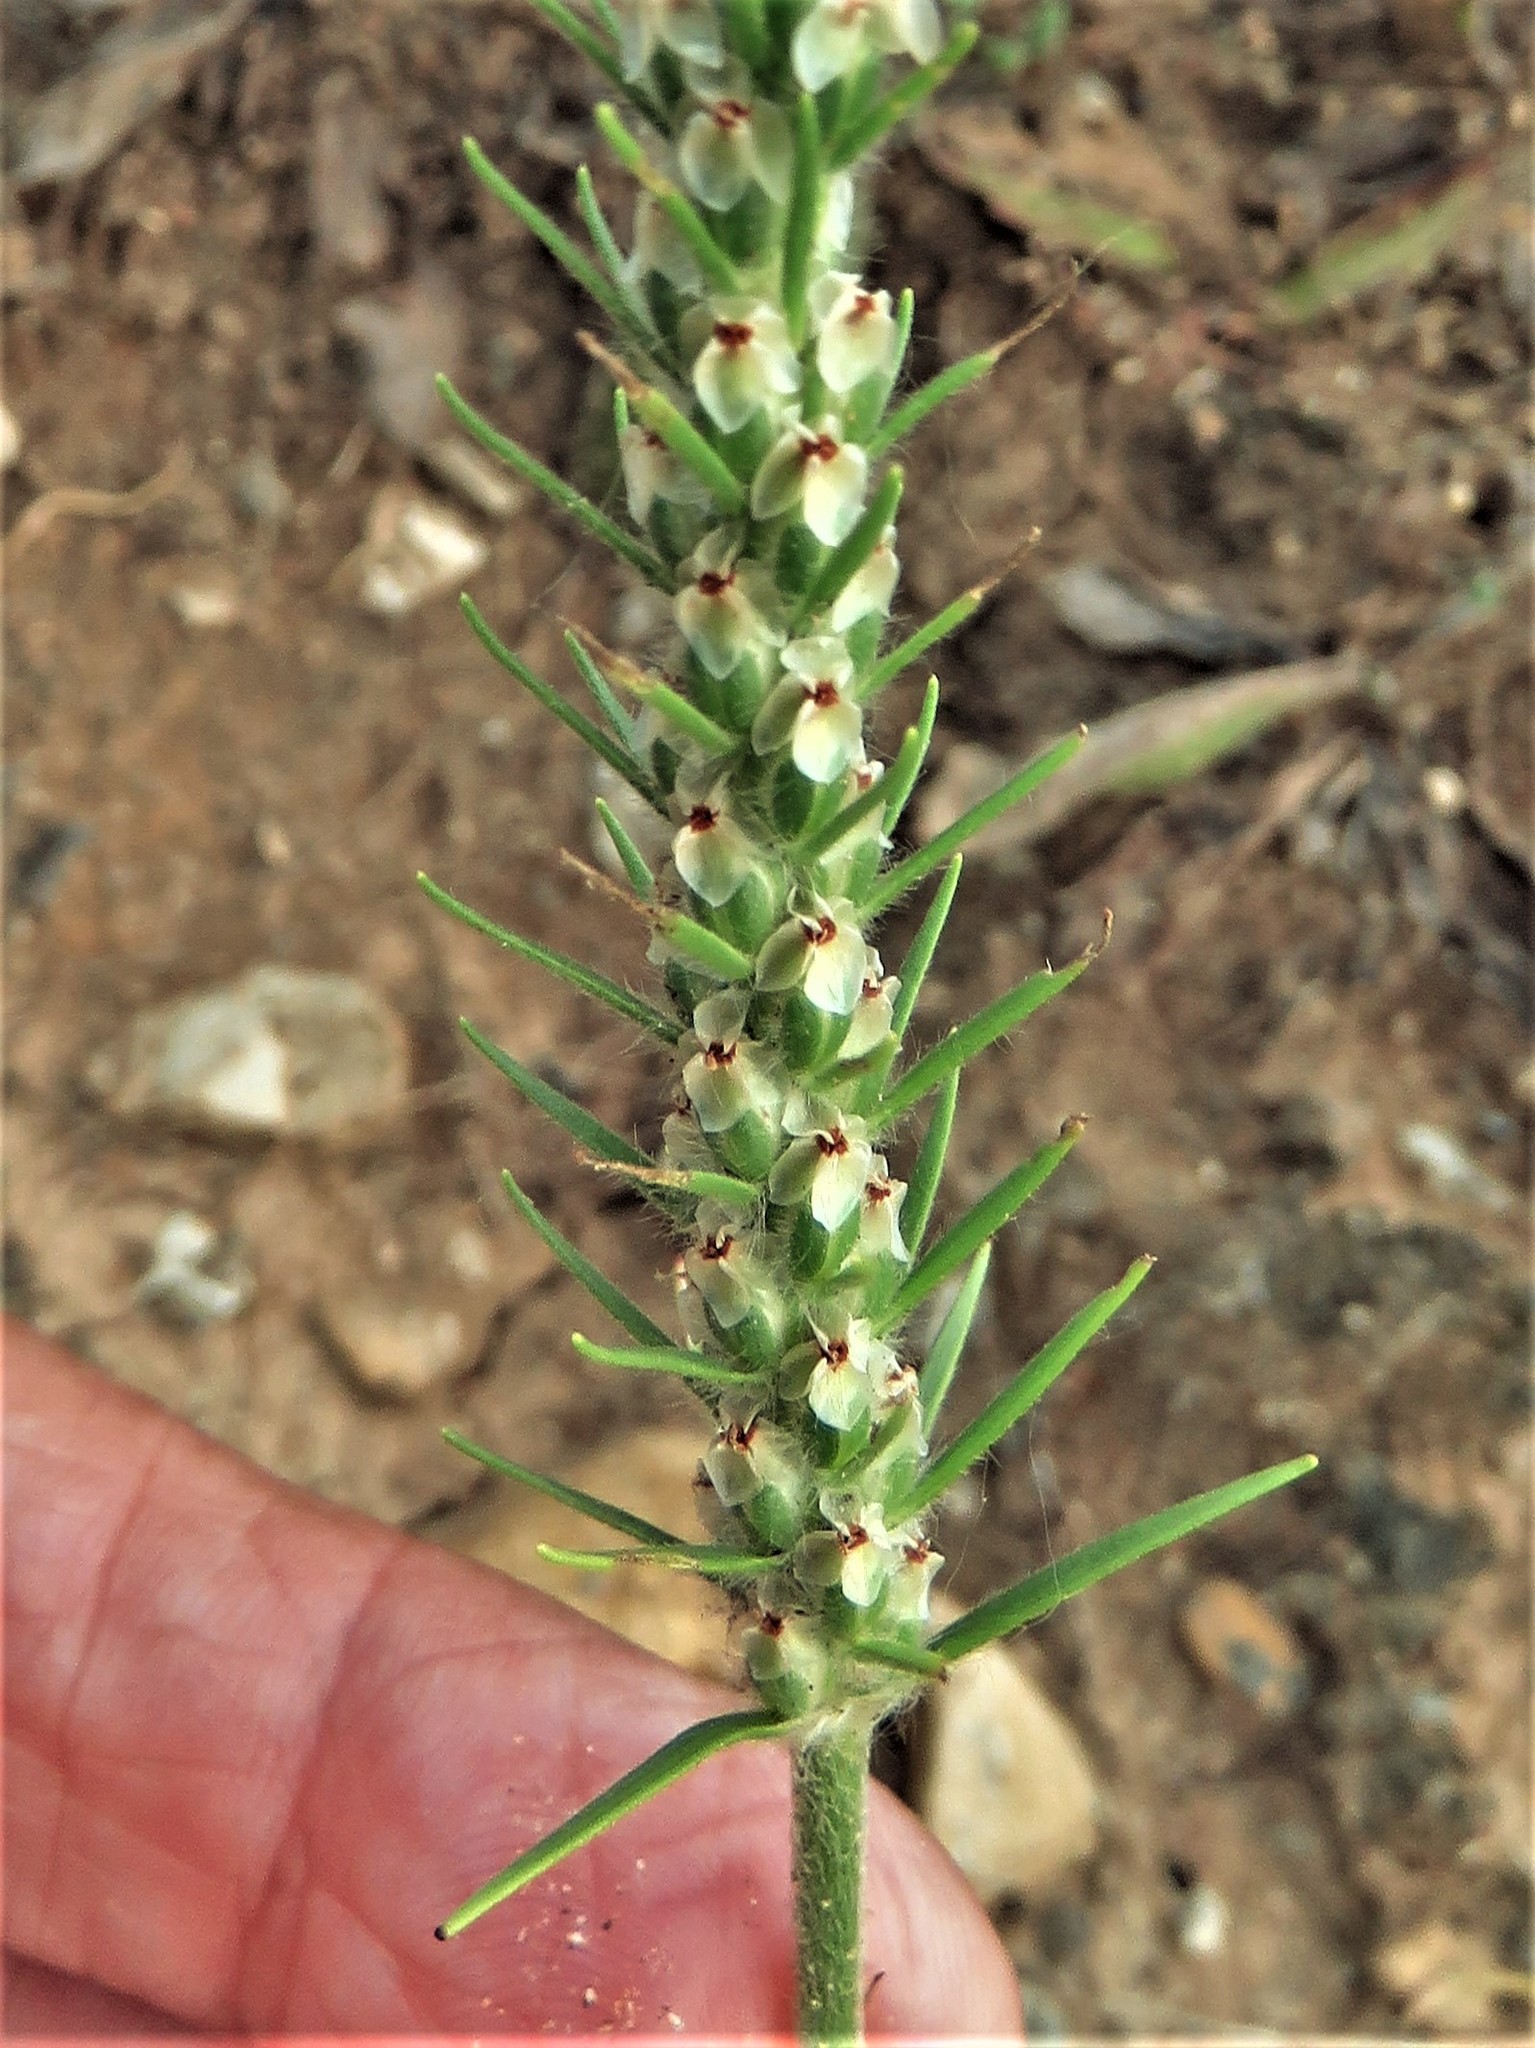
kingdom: Plantae
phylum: Tracheophyta
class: Magnoliopsida
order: Lamiales
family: Plantaginaceae
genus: Plantago
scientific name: Plantago aristata
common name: Bracted plantain
